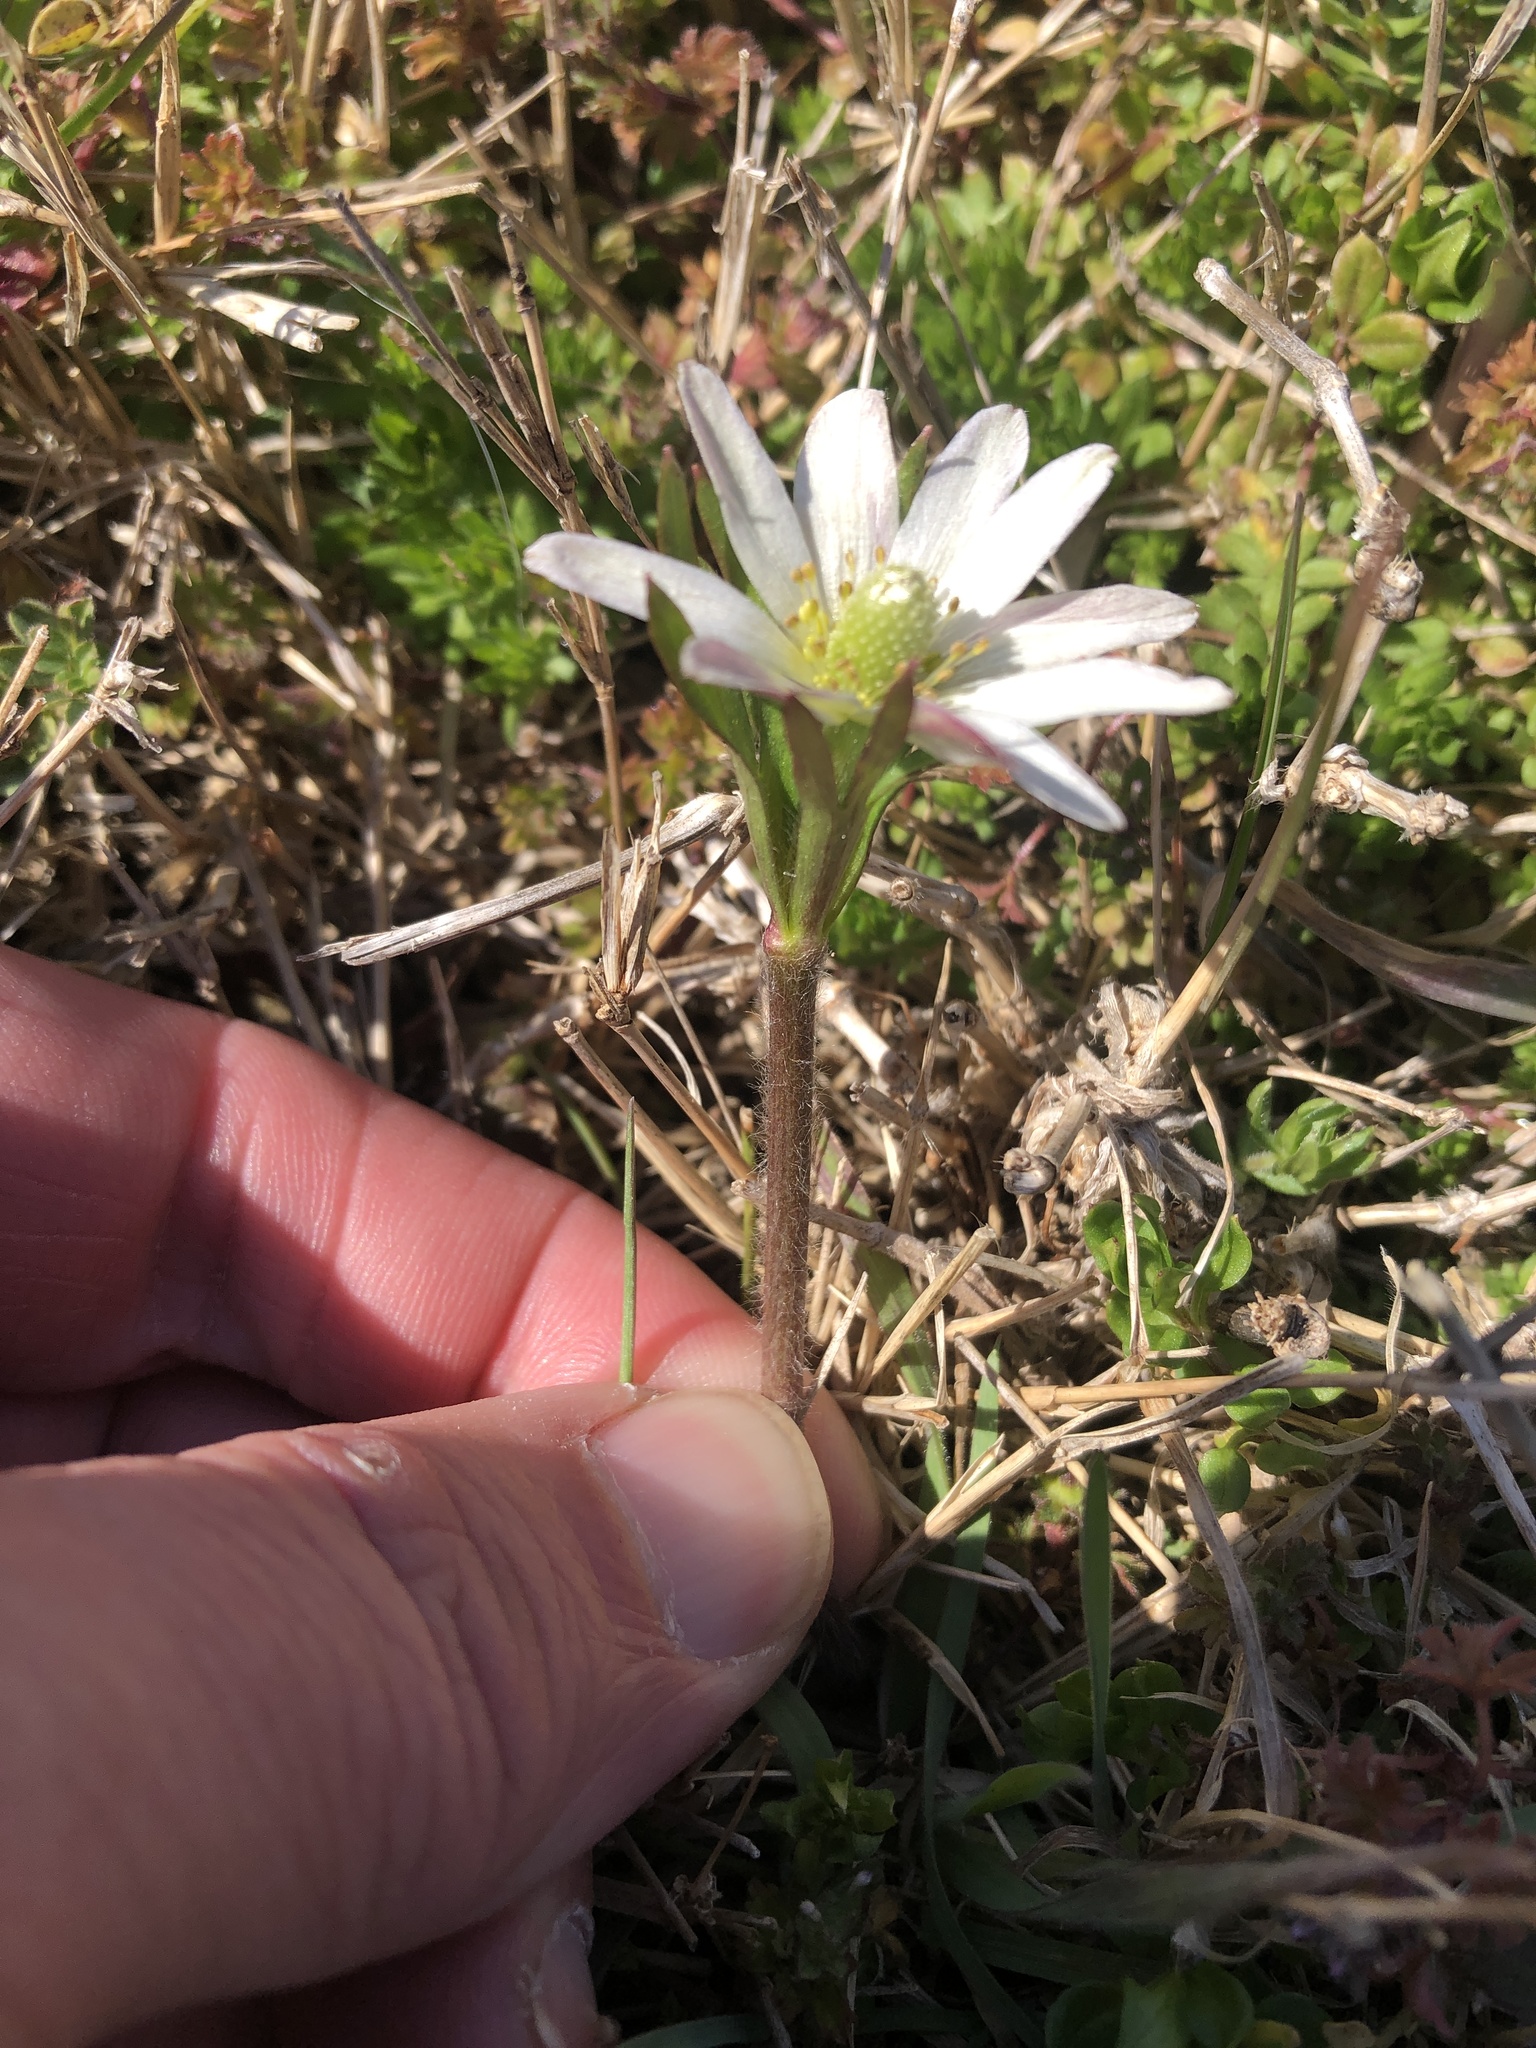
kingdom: Plantae
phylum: Tracheophyta
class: Magnoliopsida
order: Ranunculales
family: Ranunculaceae
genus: Anemone
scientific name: Anemone berlandieri
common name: Ten-petal anemone
